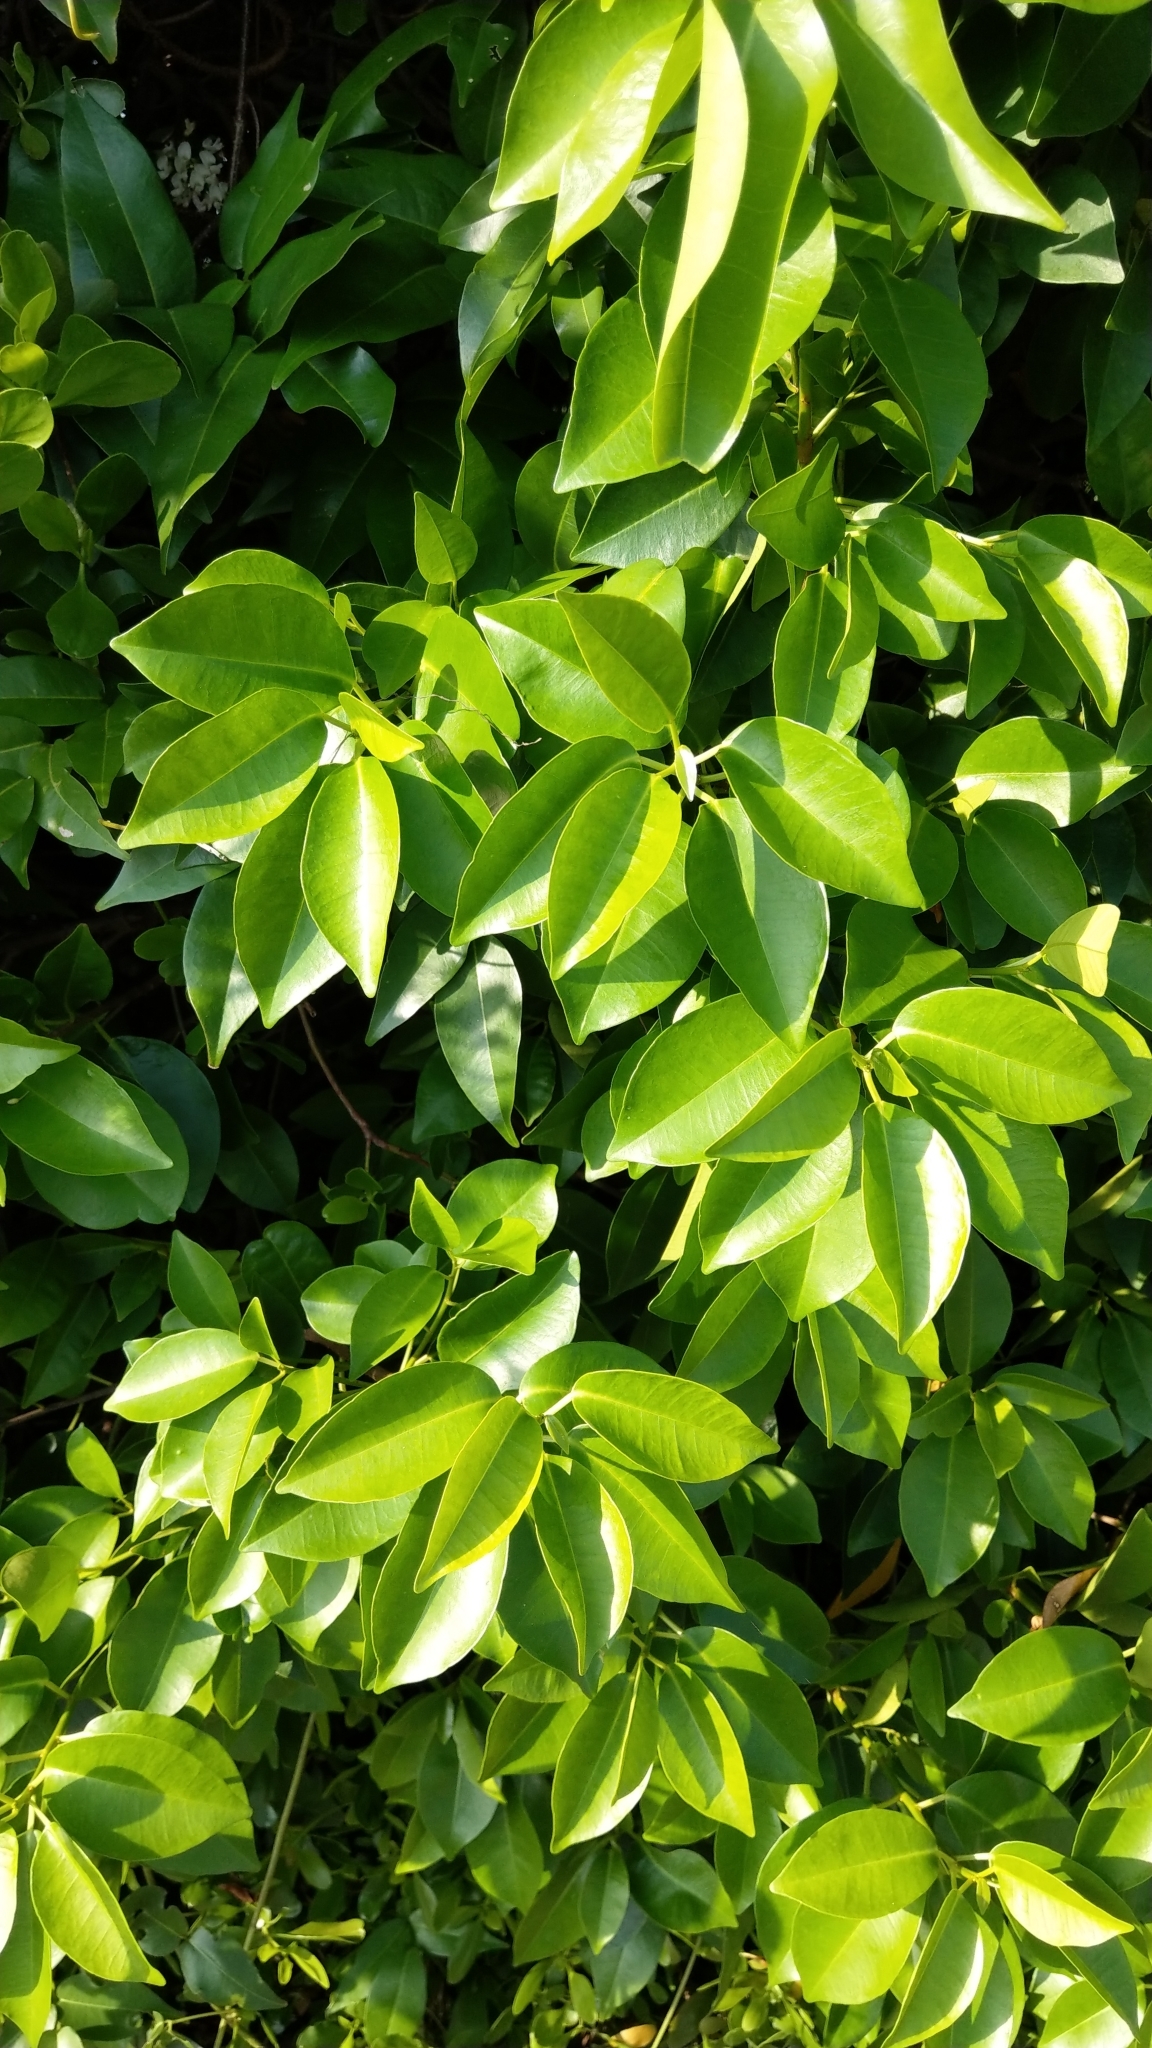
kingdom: Plantae
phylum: Tracheophyta
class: Magnoliopsida
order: Malpighiales
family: Euphorbiaceae
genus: Excoecaria
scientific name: Excoecaria agallocha
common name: River poisontree
